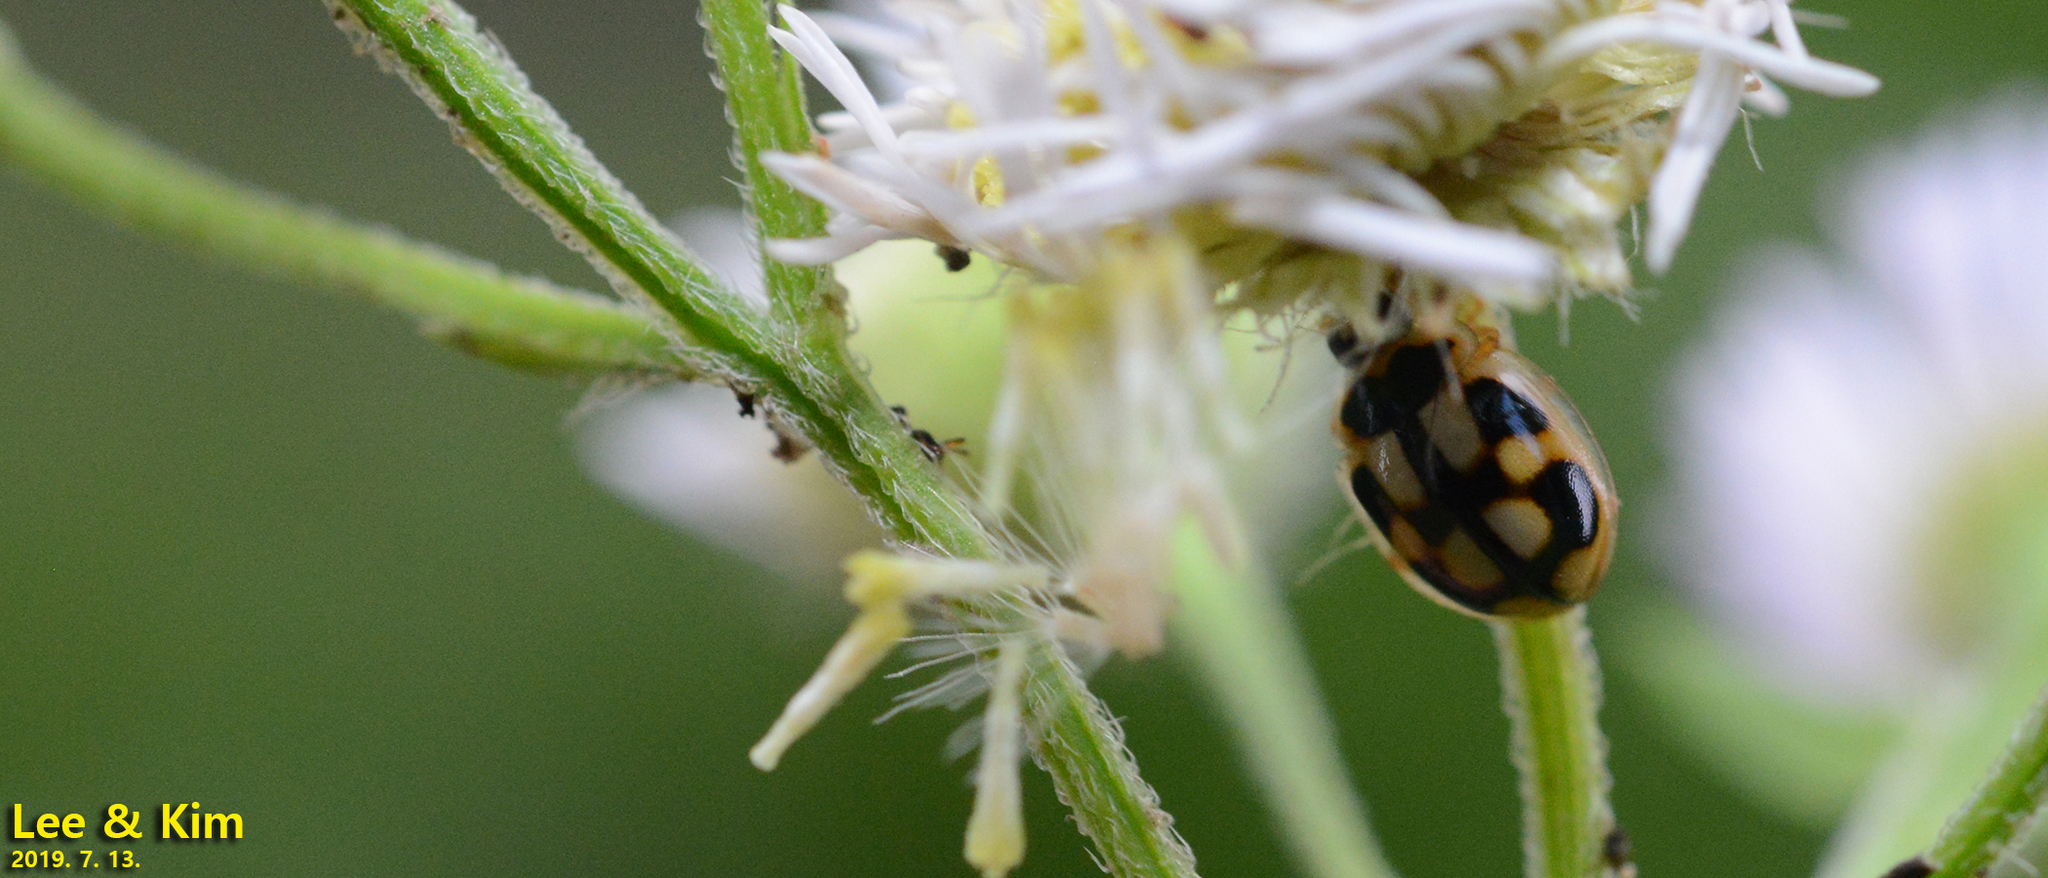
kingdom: Animalia
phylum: Arthropoda
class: Insecta
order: Coleoptera
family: Coccinellidae
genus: Propylea
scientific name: Propylea japonica
